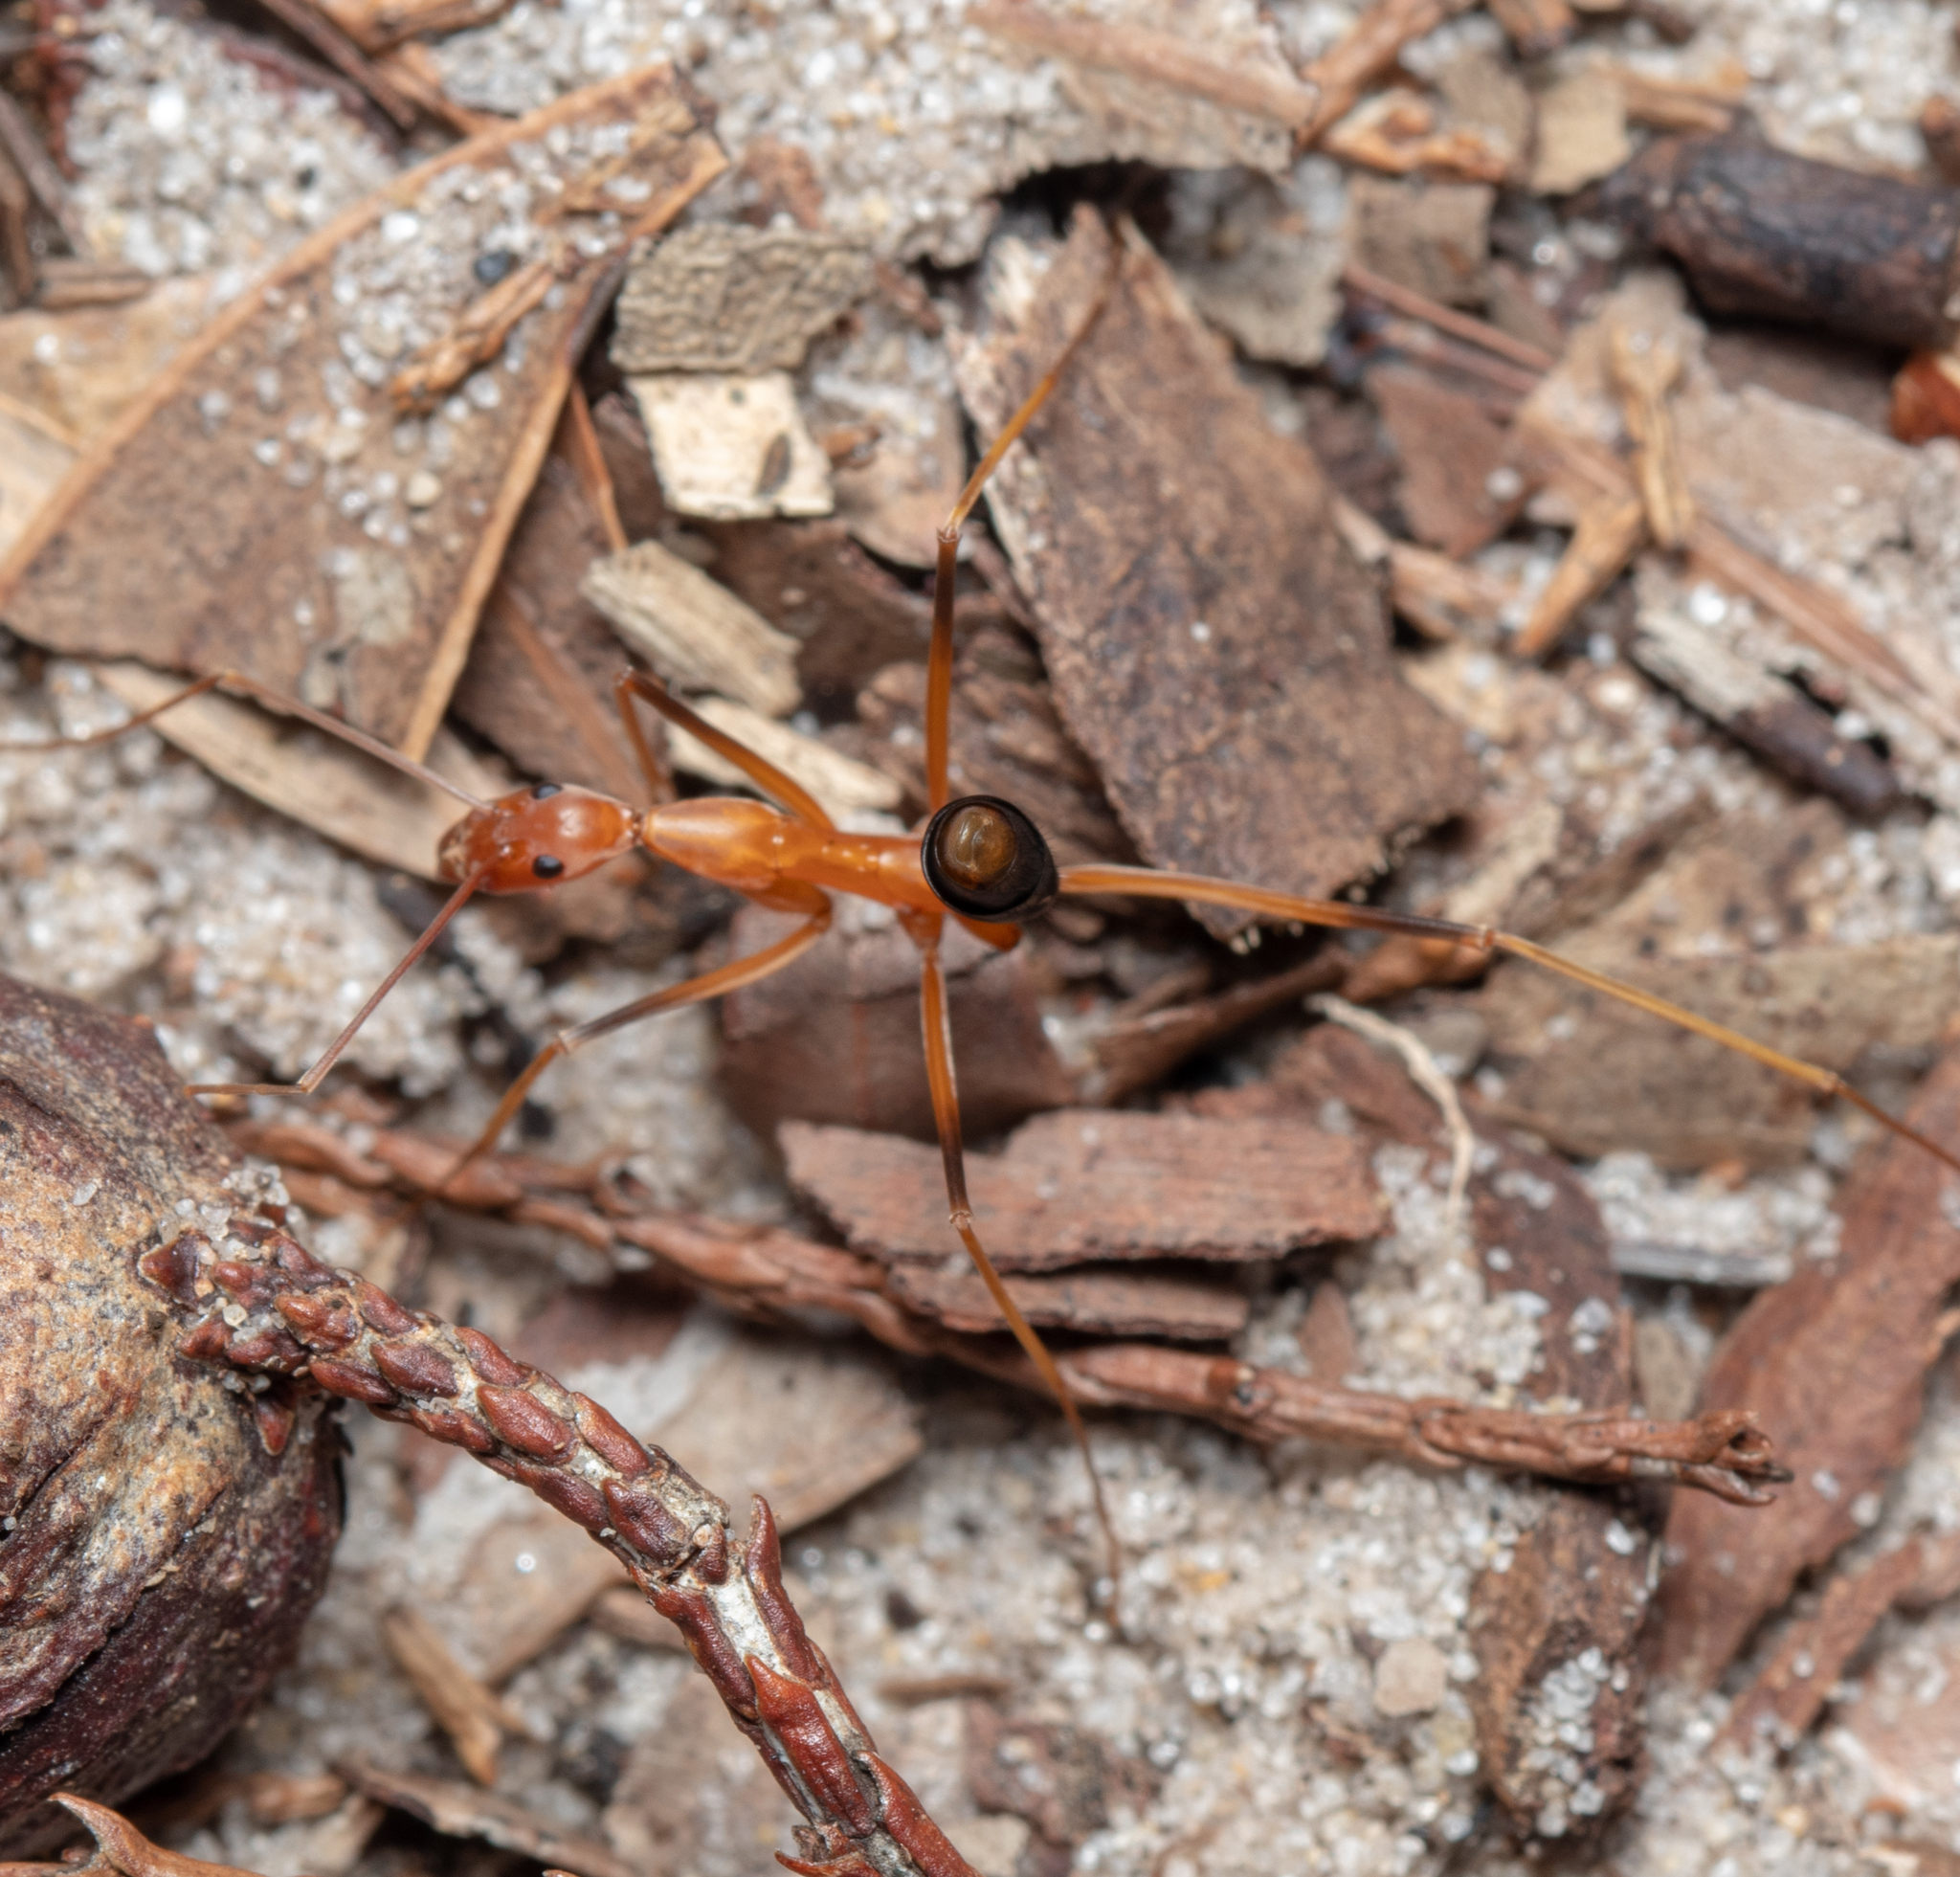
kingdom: Animalia
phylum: Arthropoda
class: Insecta
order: Hymenoptera
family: Formicidae
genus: Leptomyrmex
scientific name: Leptomyrmex rufipes
